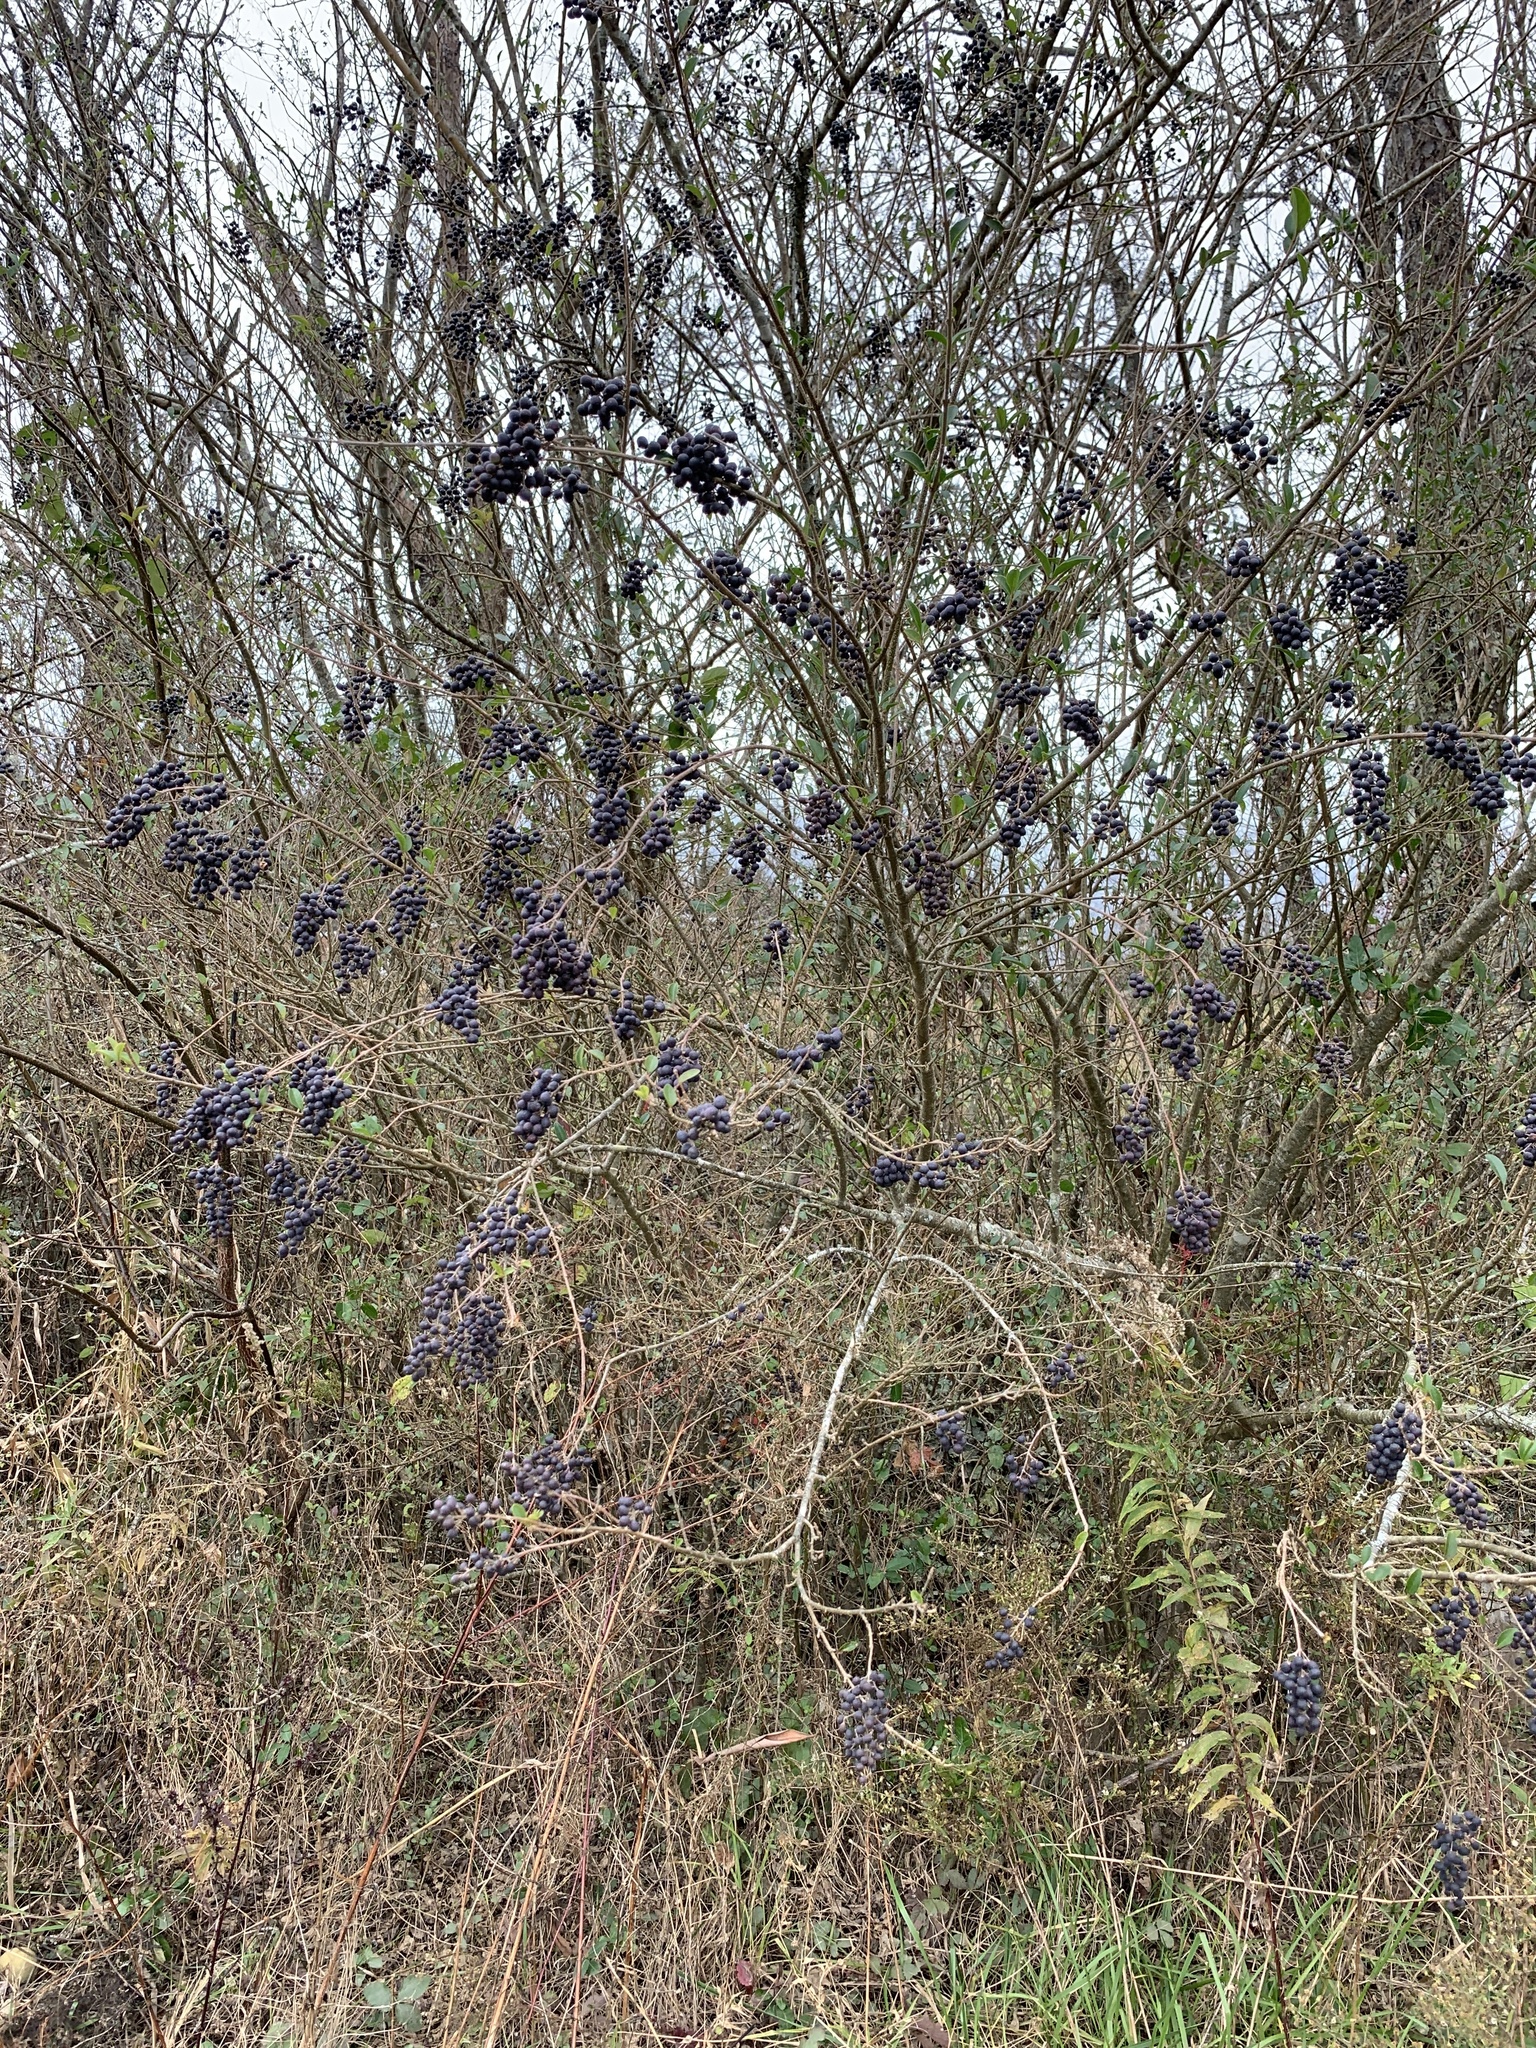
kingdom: Plantae
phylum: Tracheophyta
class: Magnoliopsida
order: Lamiales
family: Oleaceae
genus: Ligustrum
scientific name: Ligustrum sinense
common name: Chinese privet
